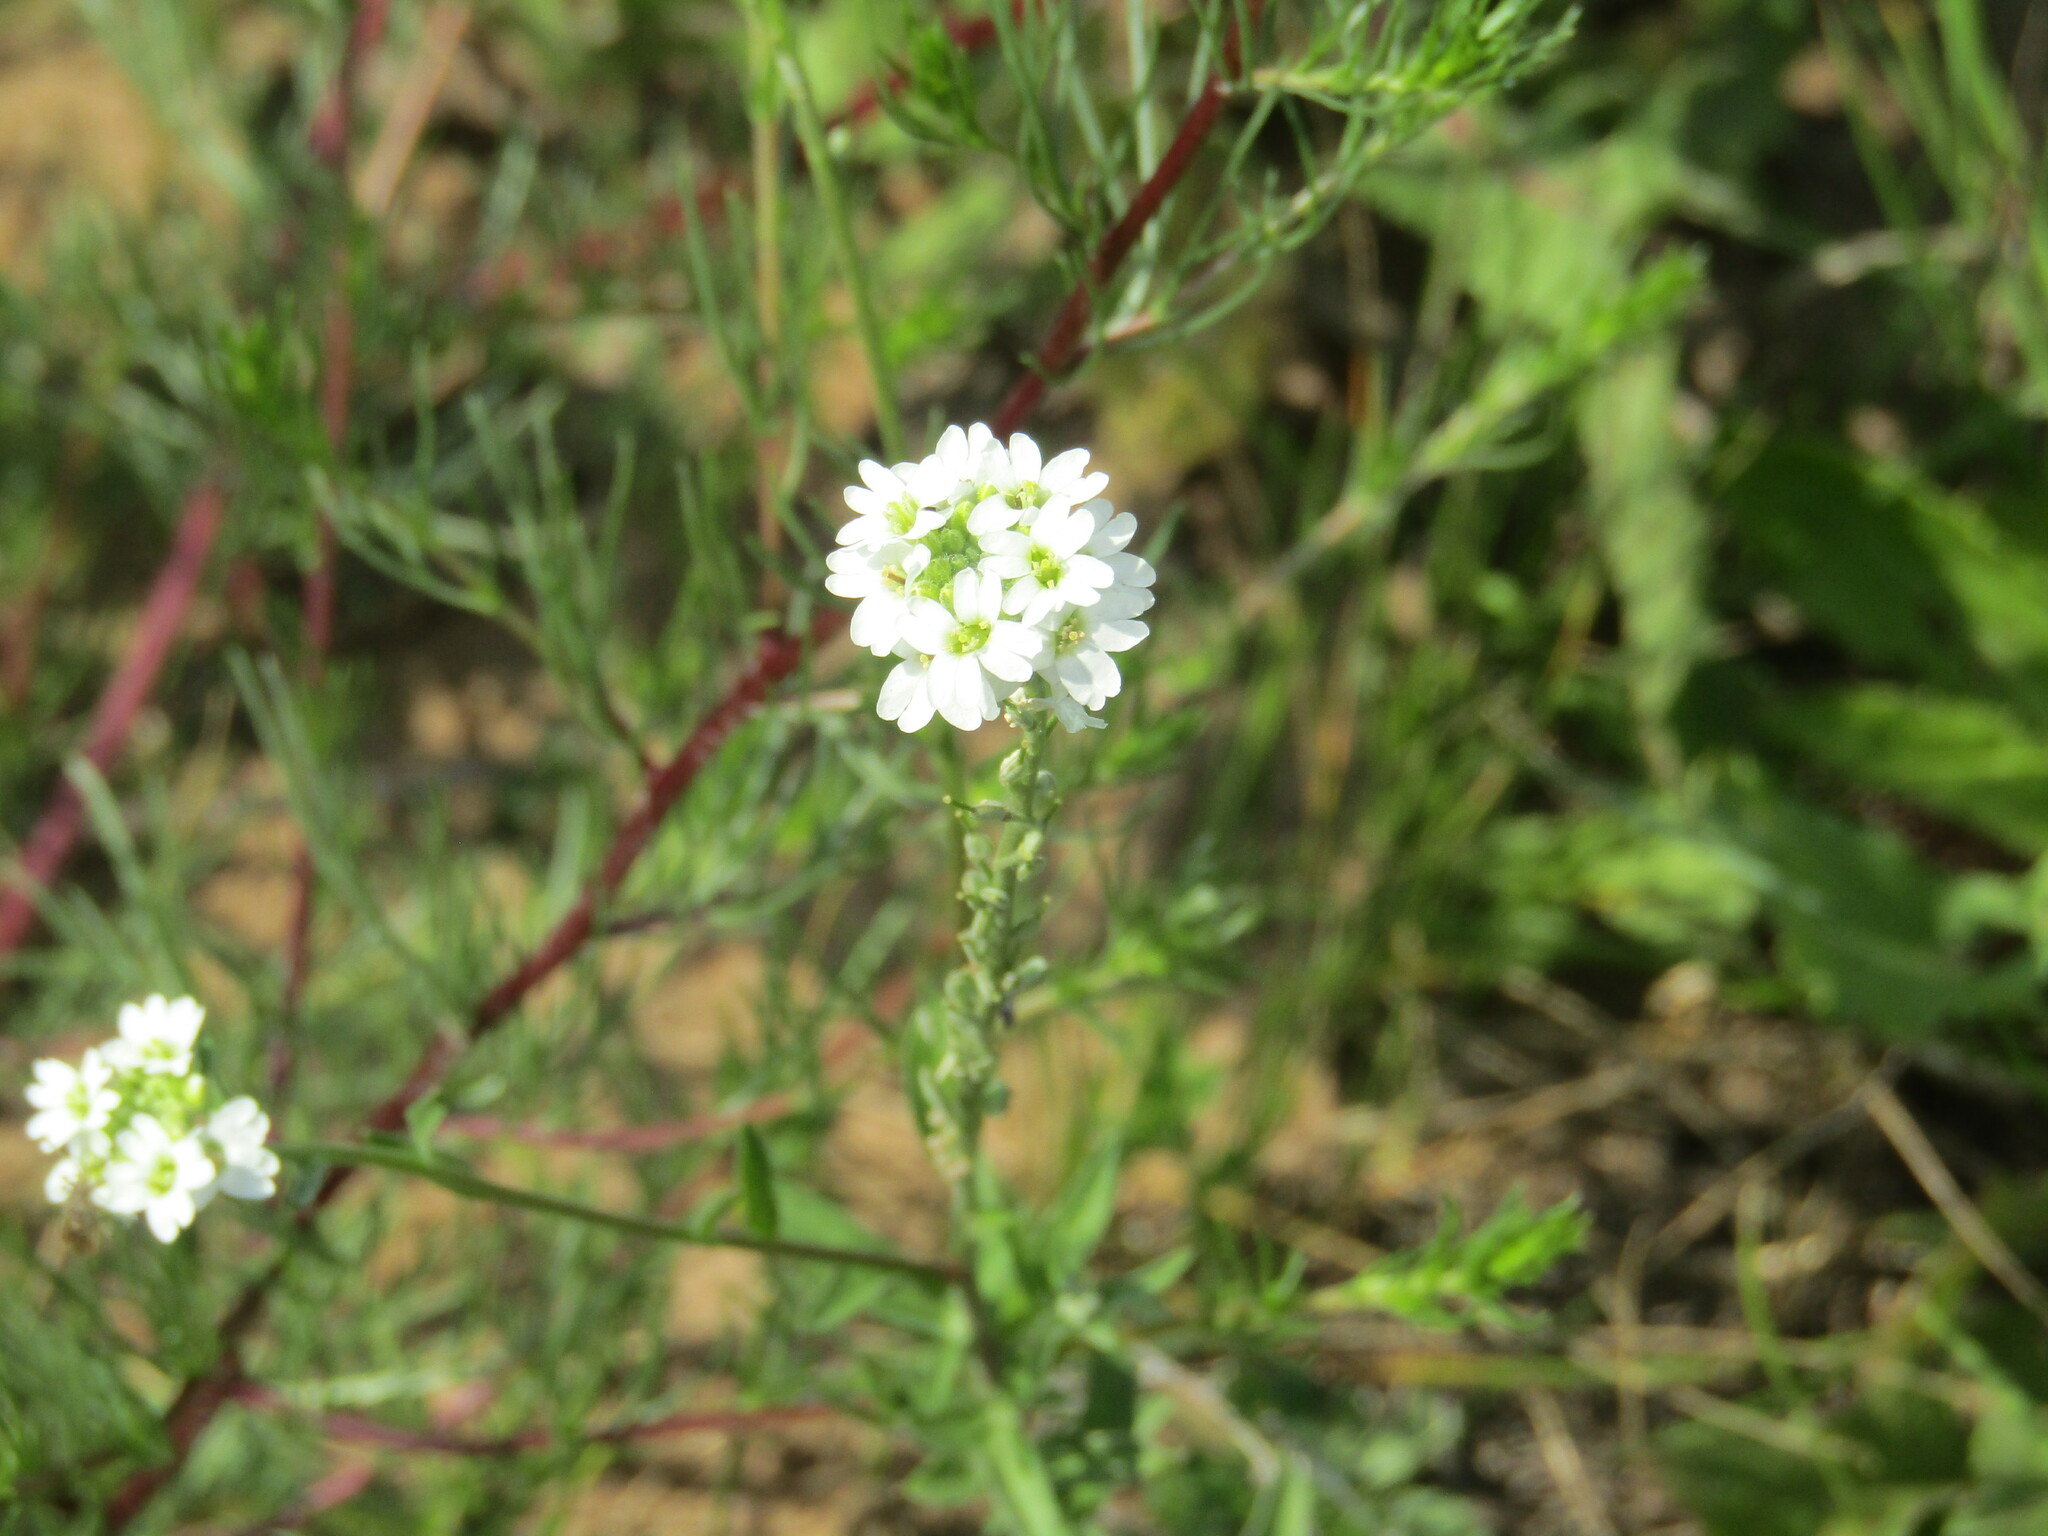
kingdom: Plantae
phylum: Tracheophyta
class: Magnoliopsida
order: Brassicales
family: Brassicaceae
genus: Berteroa
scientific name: Berteroa incana
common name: Hoary alison
